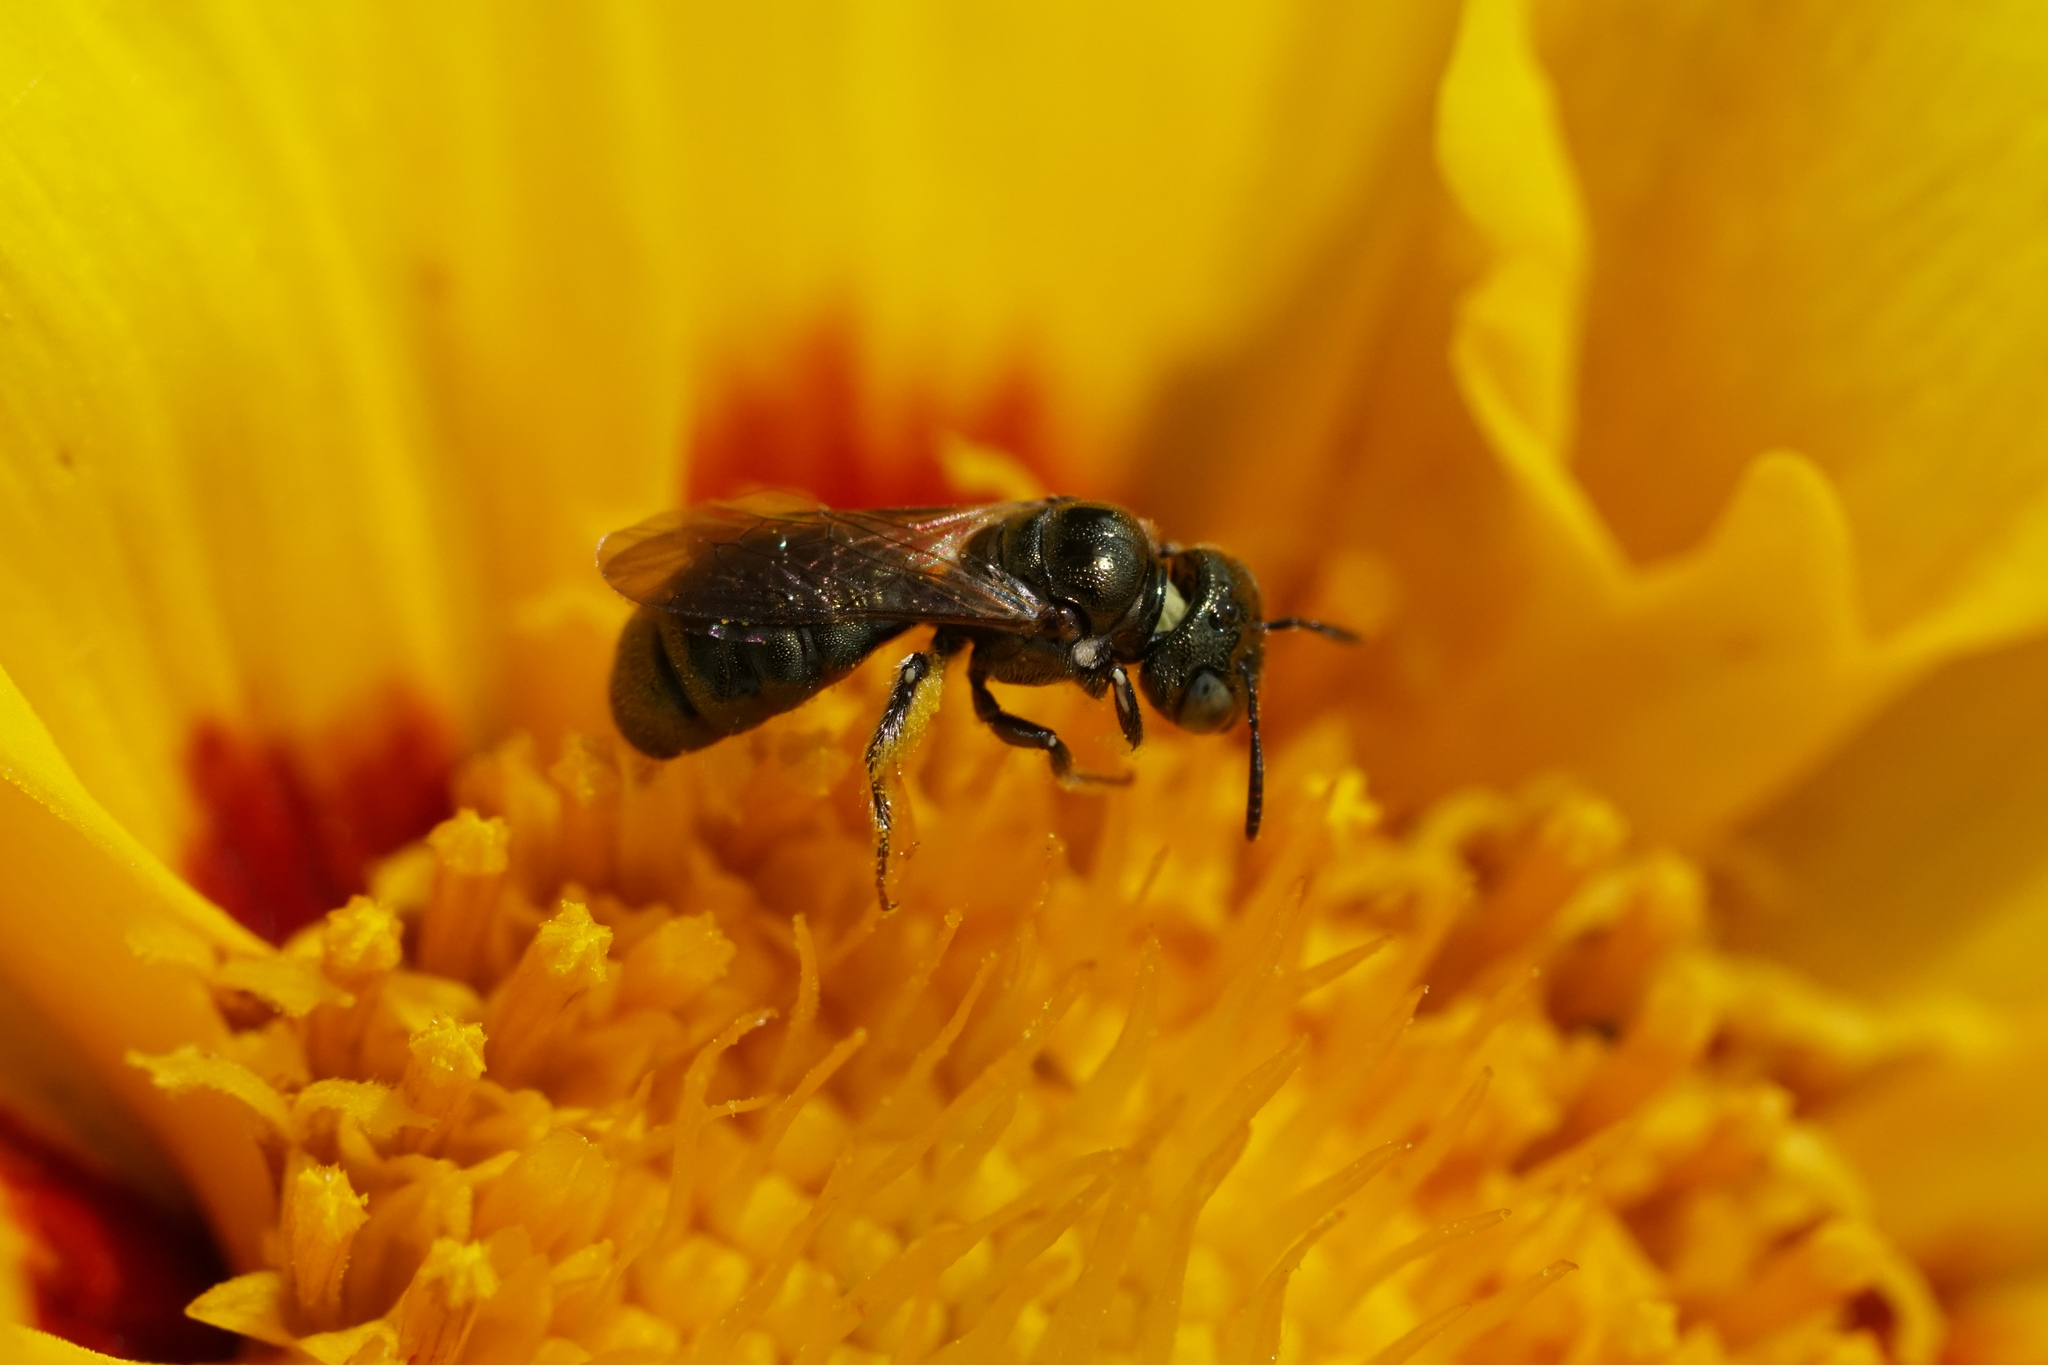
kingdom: Animalia
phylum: Arthropoda
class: Insecta
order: Hymenoptera
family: Apidae
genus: Ceratina
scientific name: Ceratina strenua
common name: Nimble carpenter bee
